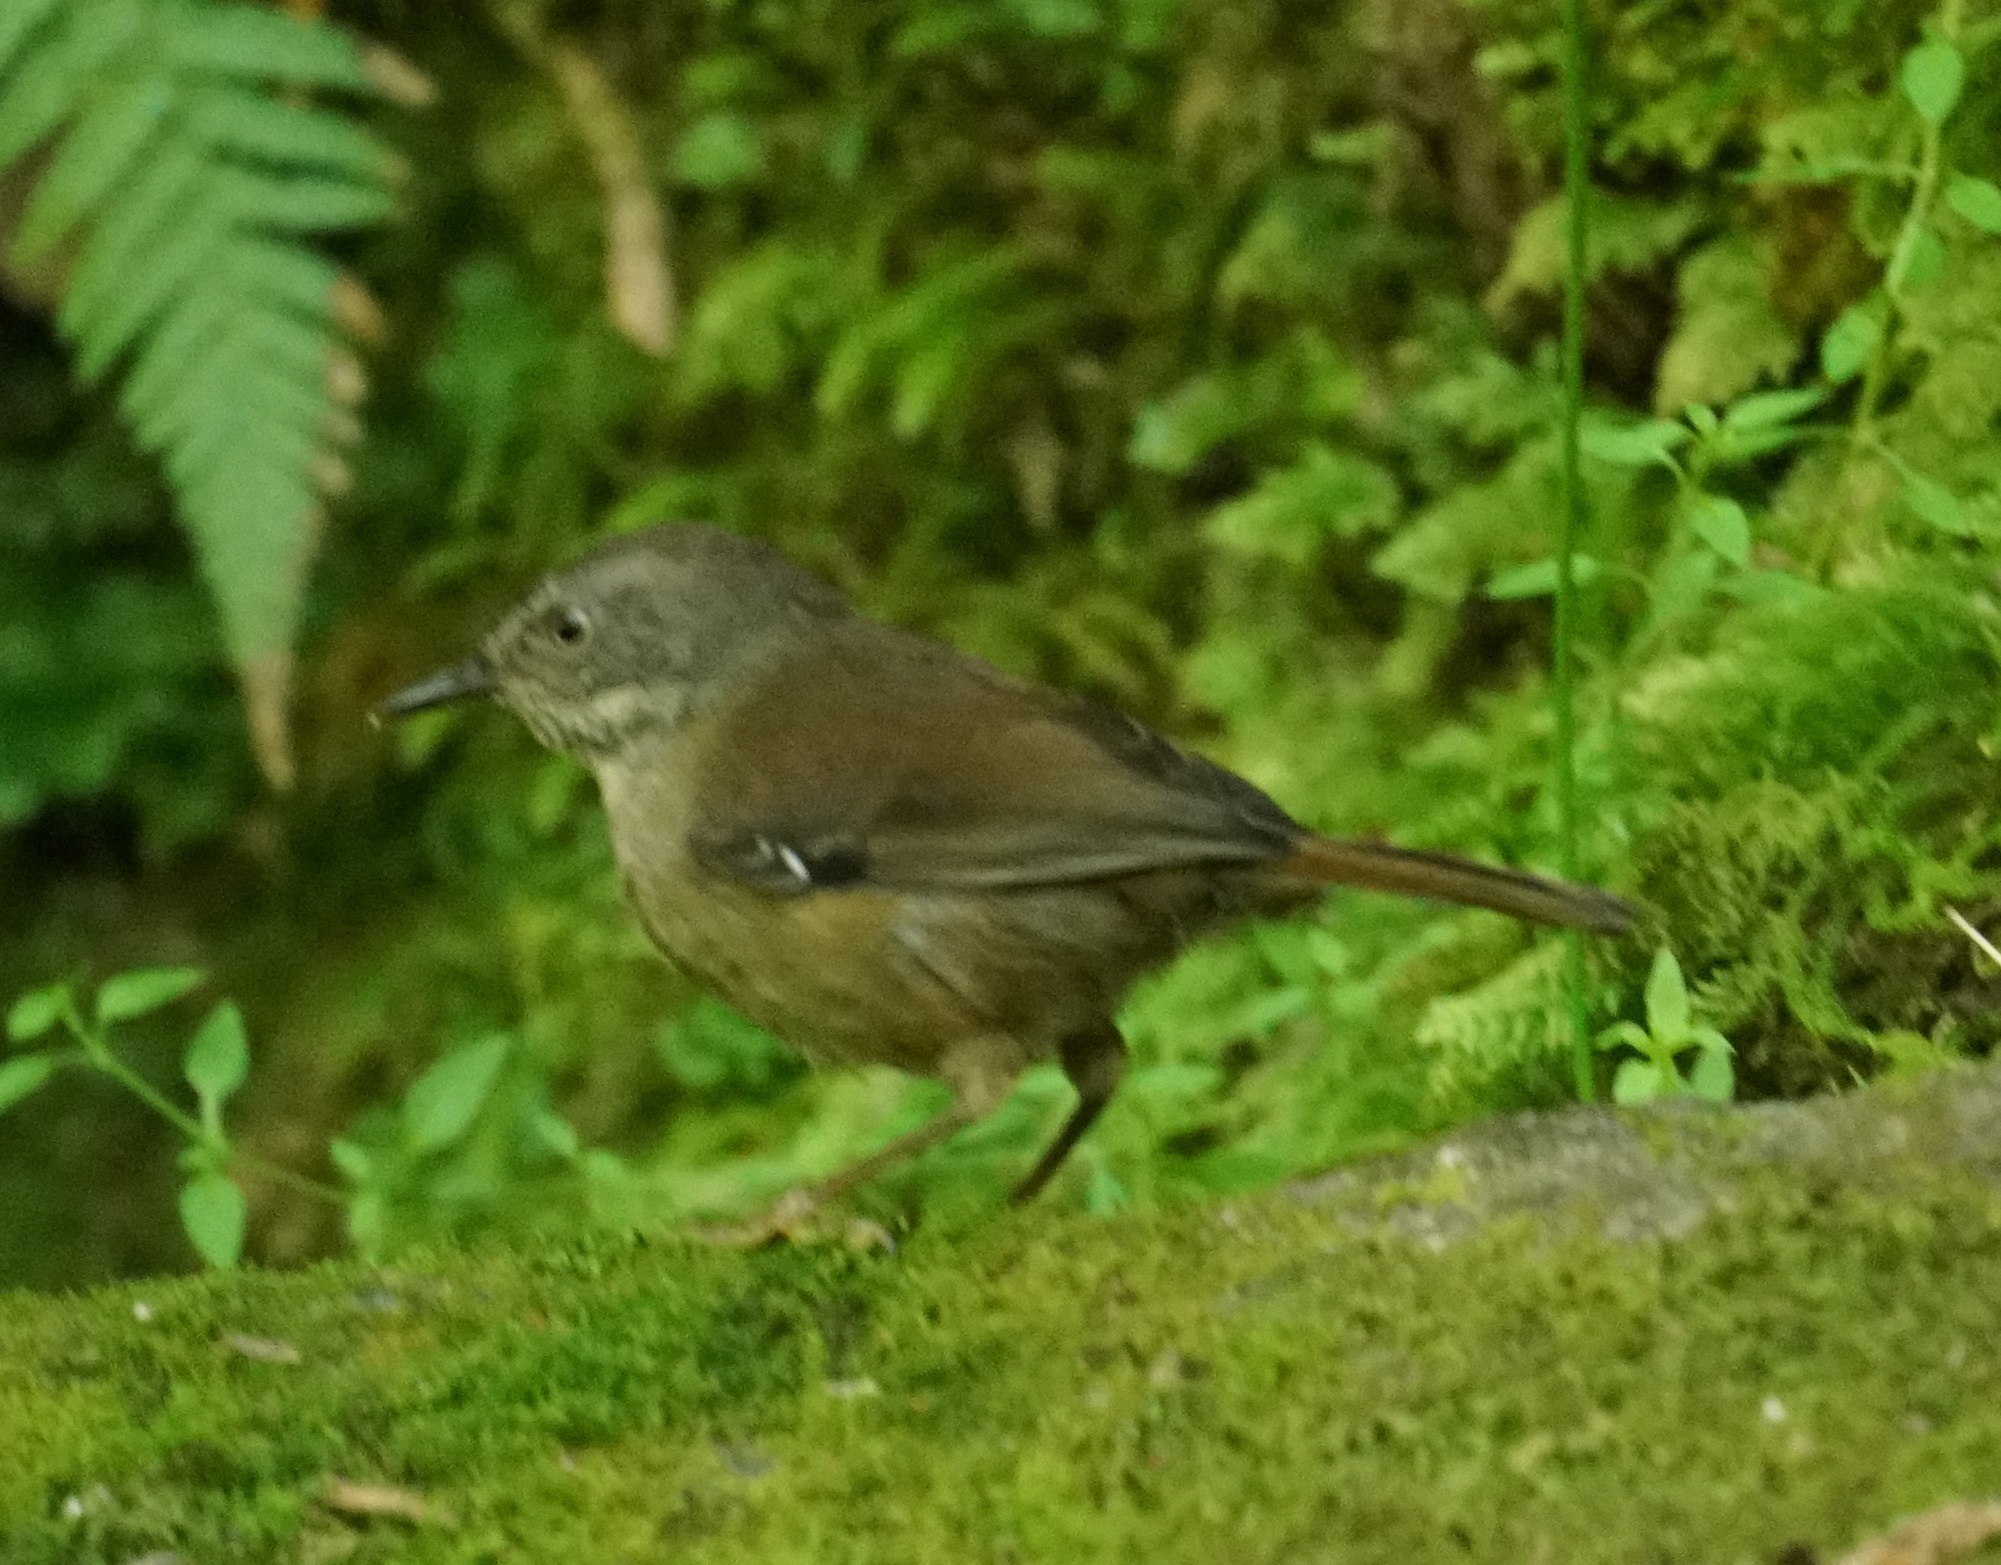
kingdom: Animalia
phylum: Chordata
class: Aves
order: Passeriformes
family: Acanthizidae
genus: Sericornis
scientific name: Sericornis frontalis
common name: White-browed scrubwren
